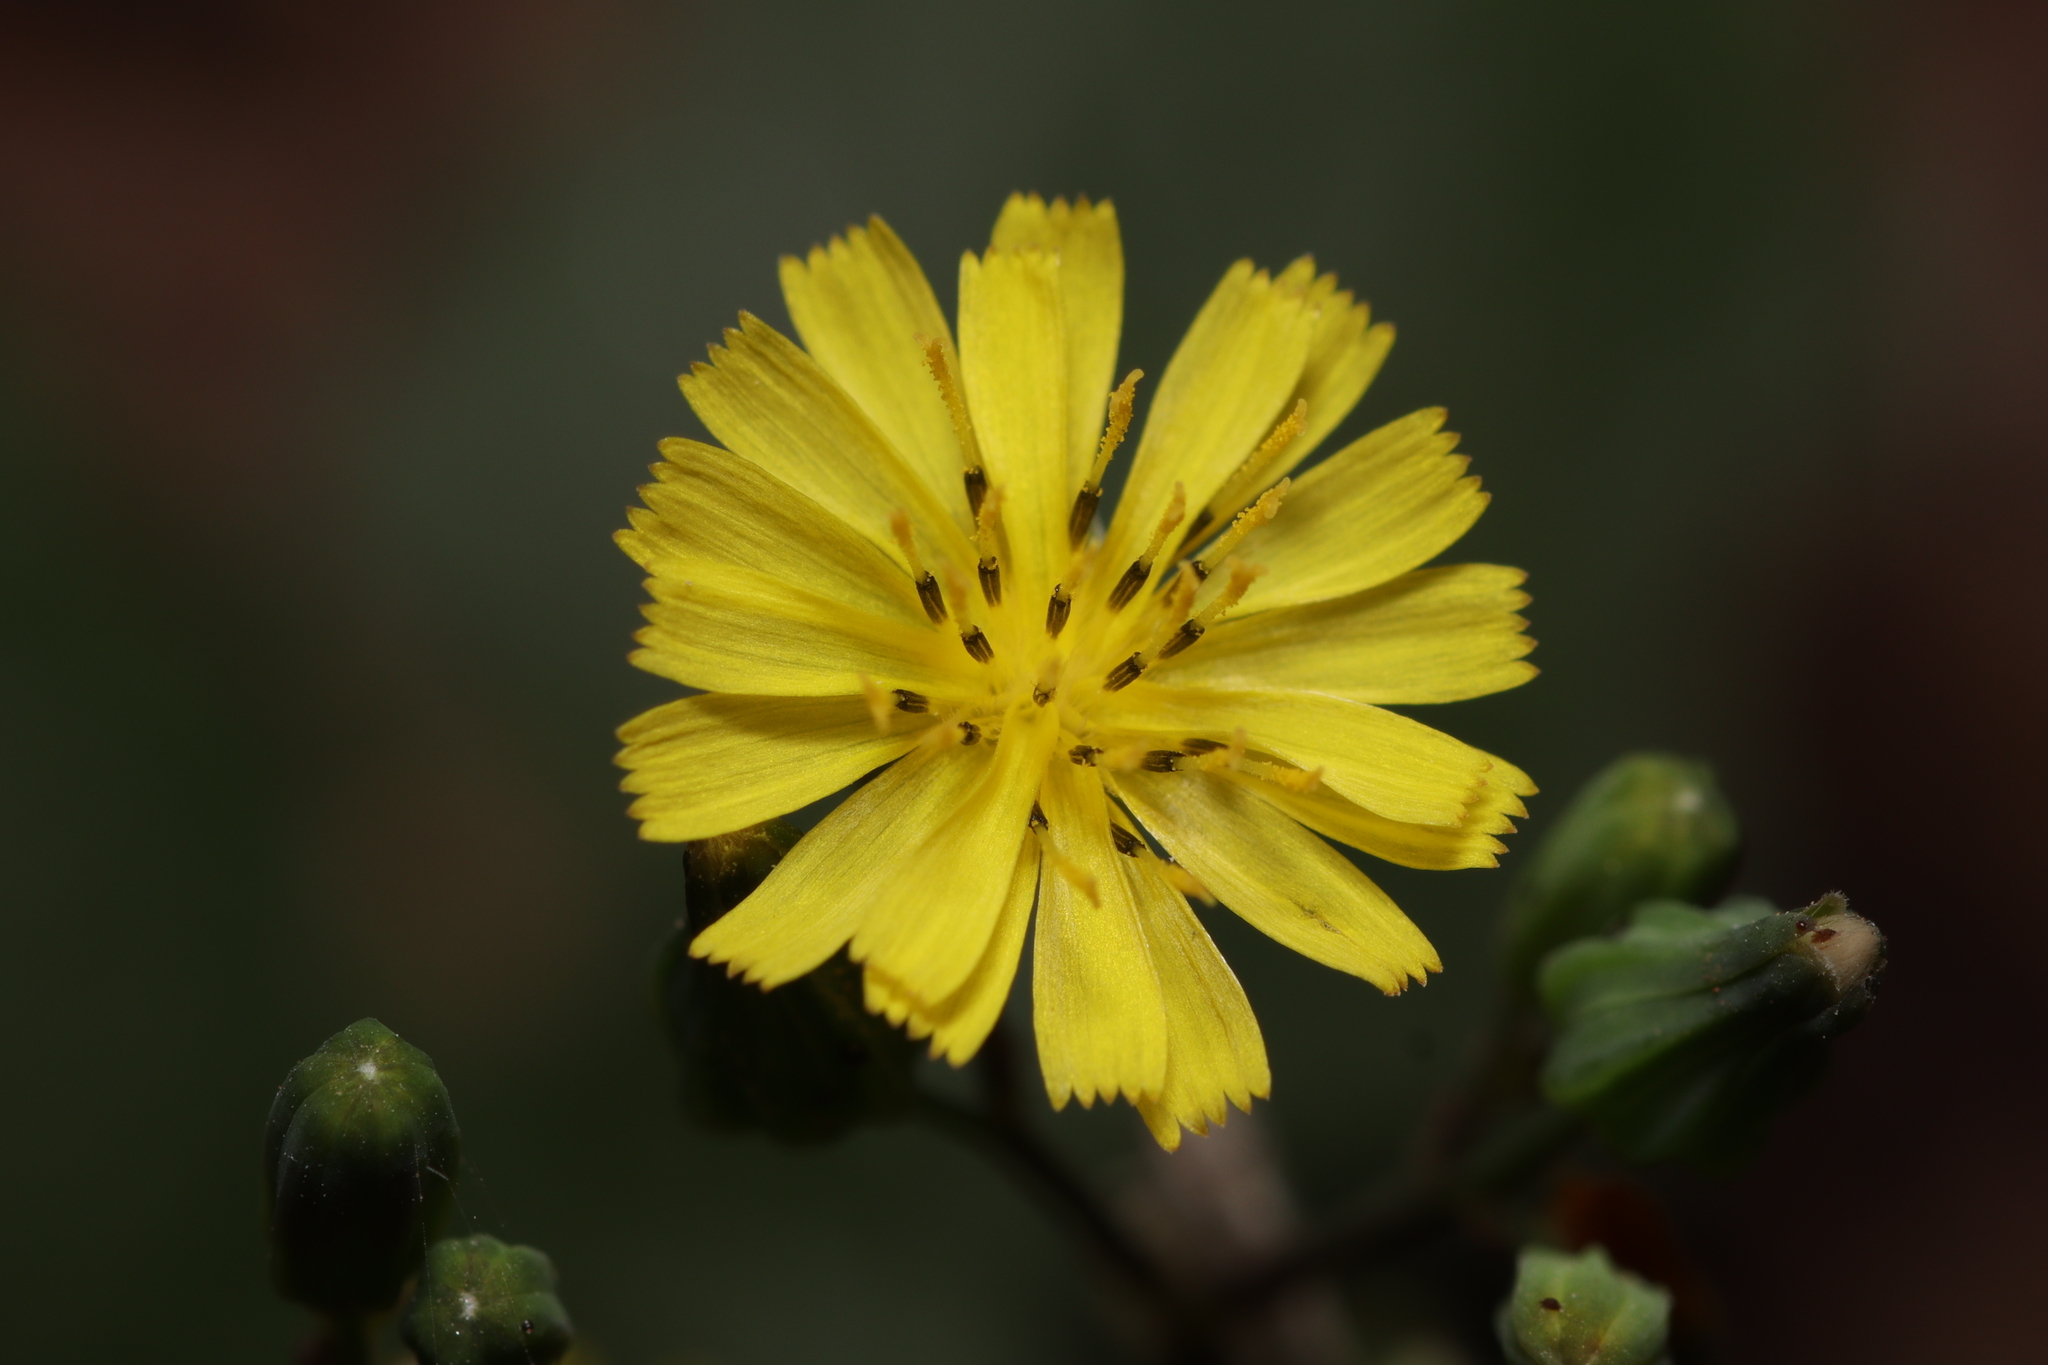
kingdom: Plantae
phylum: Tracheophyta
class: Magnoliopsida
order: Asterales
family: Asteraceae
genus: Youngia
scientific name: Youngia japonica
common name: Oriental false hawksbeard
